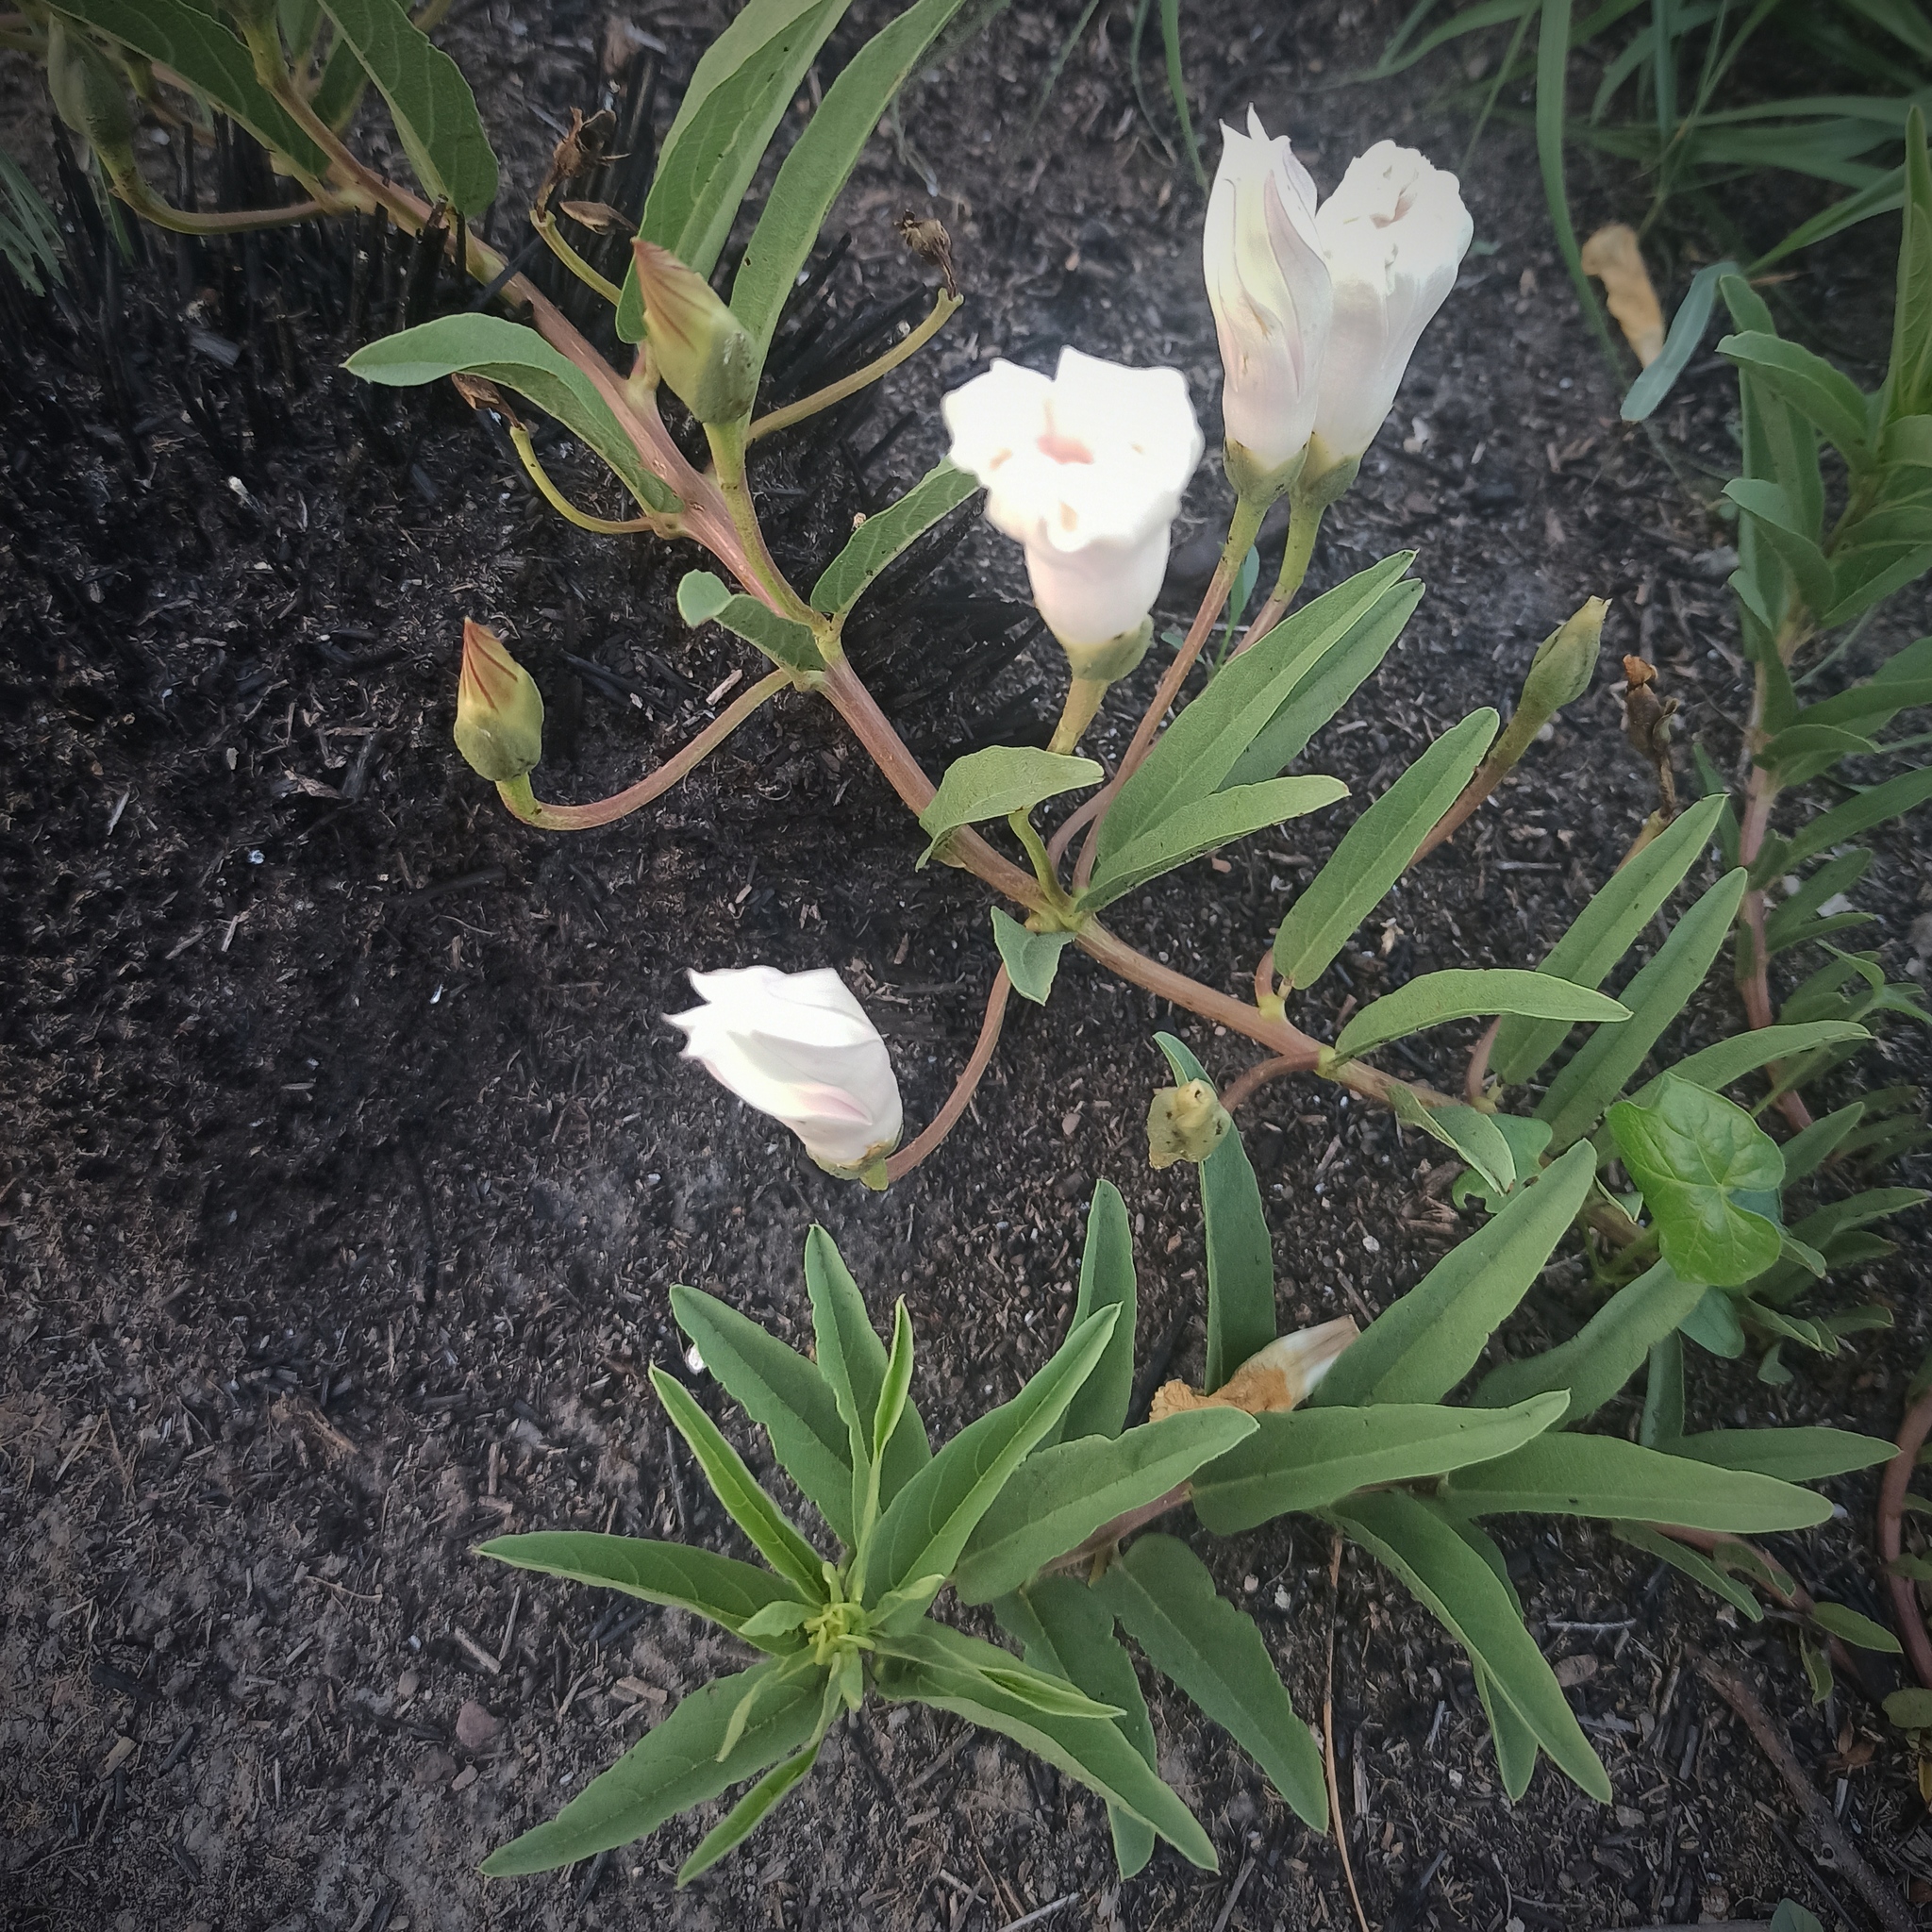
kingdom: Plantae
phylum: Tracheophyta
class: Magnoliopsida
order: Solanales
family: Convolvulaceae
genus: Ipomoea
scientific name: Ipomoea longifolia
